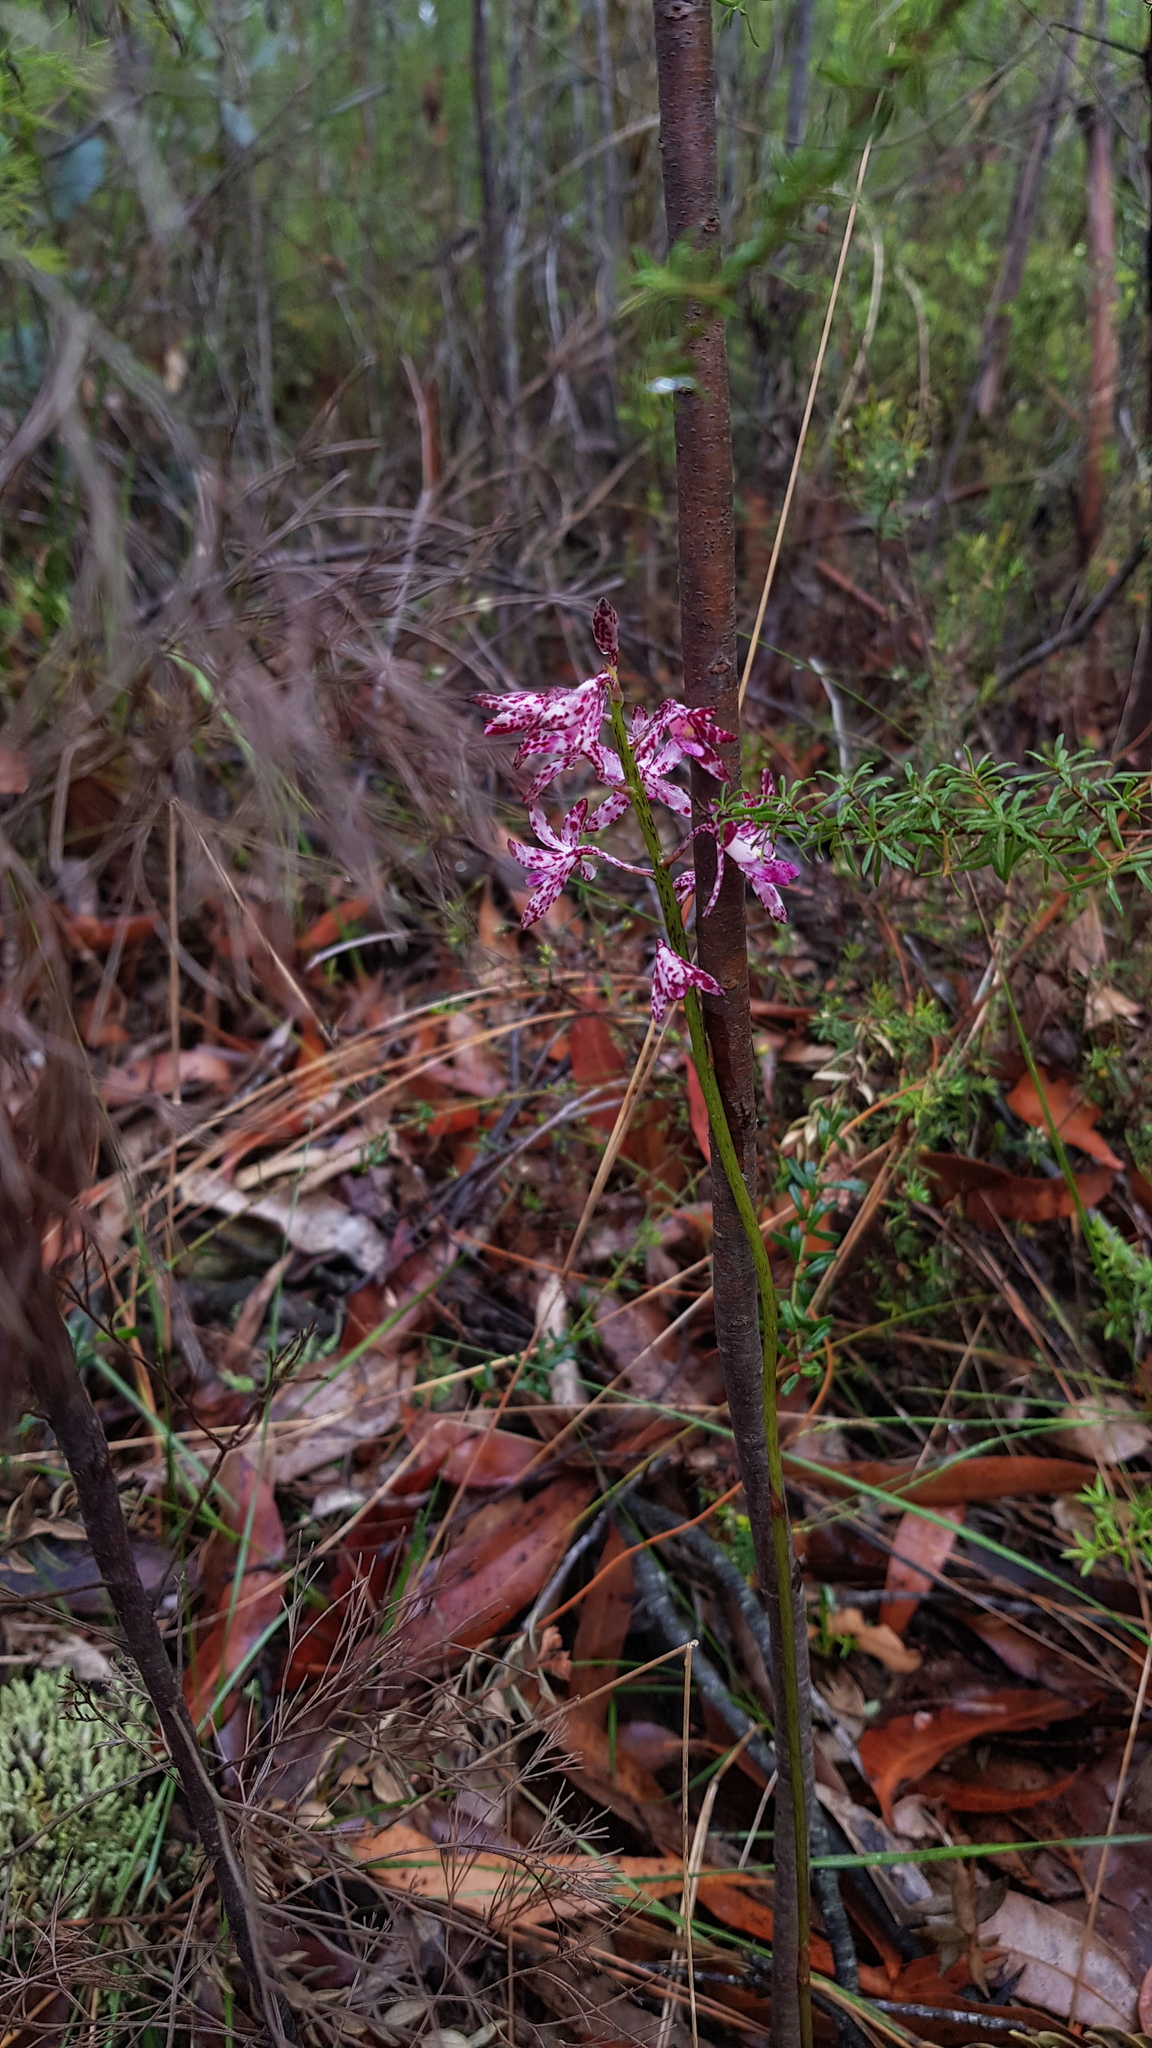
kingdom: Plantae
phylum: Tracheophyta
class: Liliopsida
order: Asparagales
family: Orchidaceae
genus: Dipodium
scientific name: Dipodium variegatum
